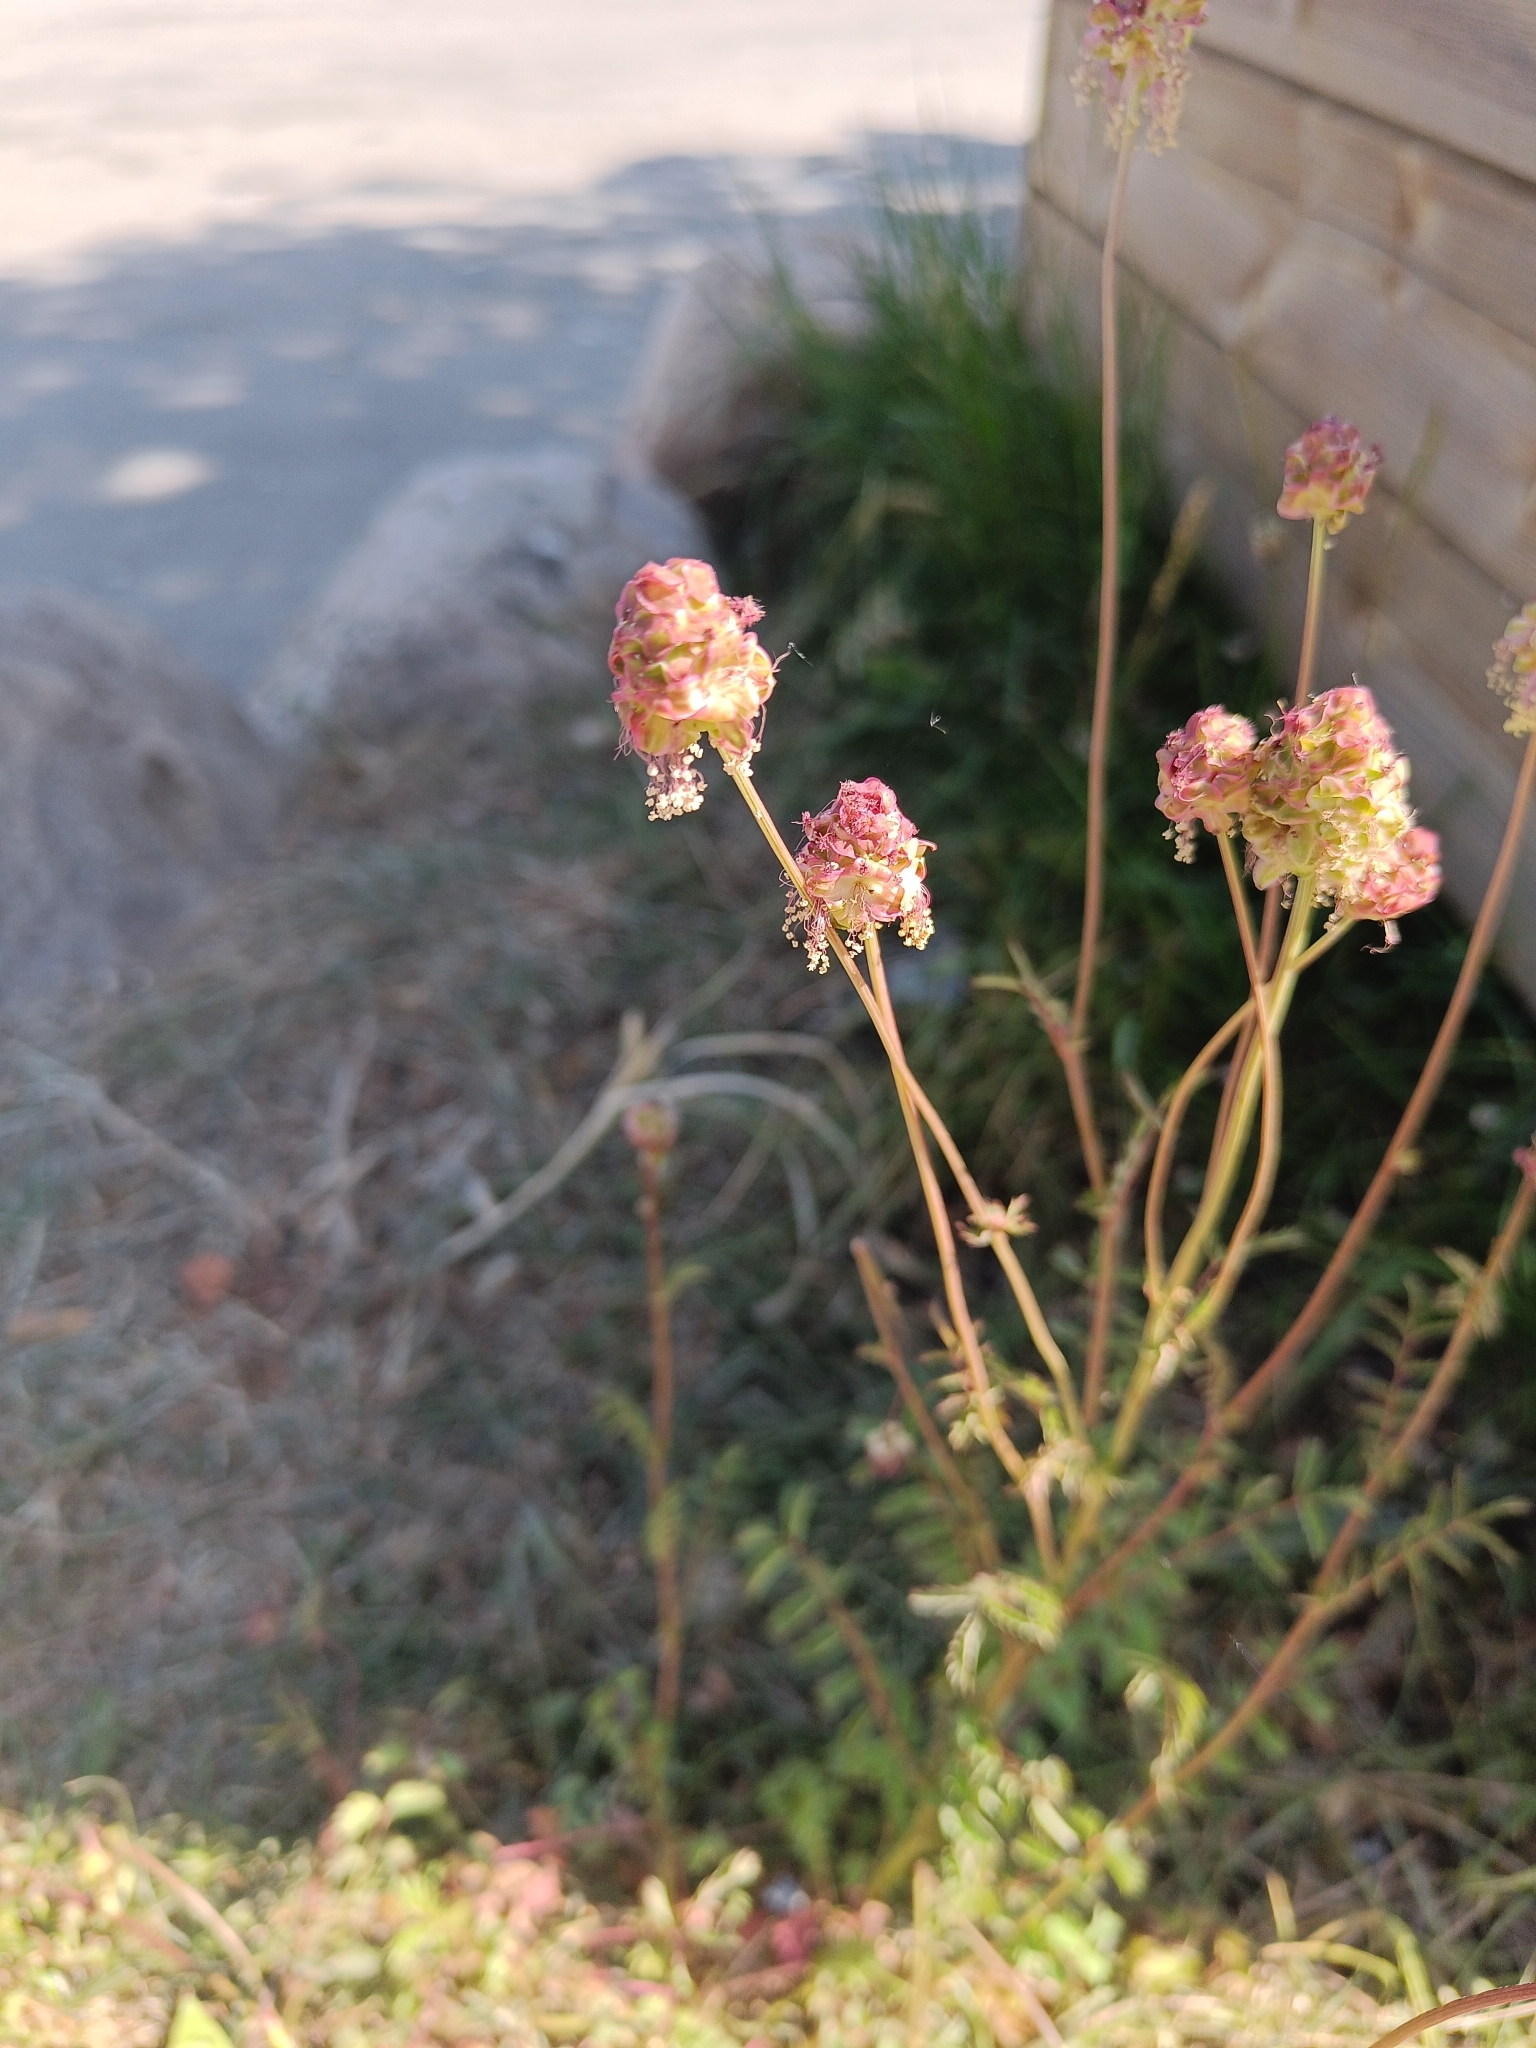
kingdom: Plantae
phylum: Tracheophyta
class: Magnoliopsida
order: Rosales
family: Rosaceae
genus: Poterium
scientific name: Poterium sanguisorba
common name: Salad burnet
